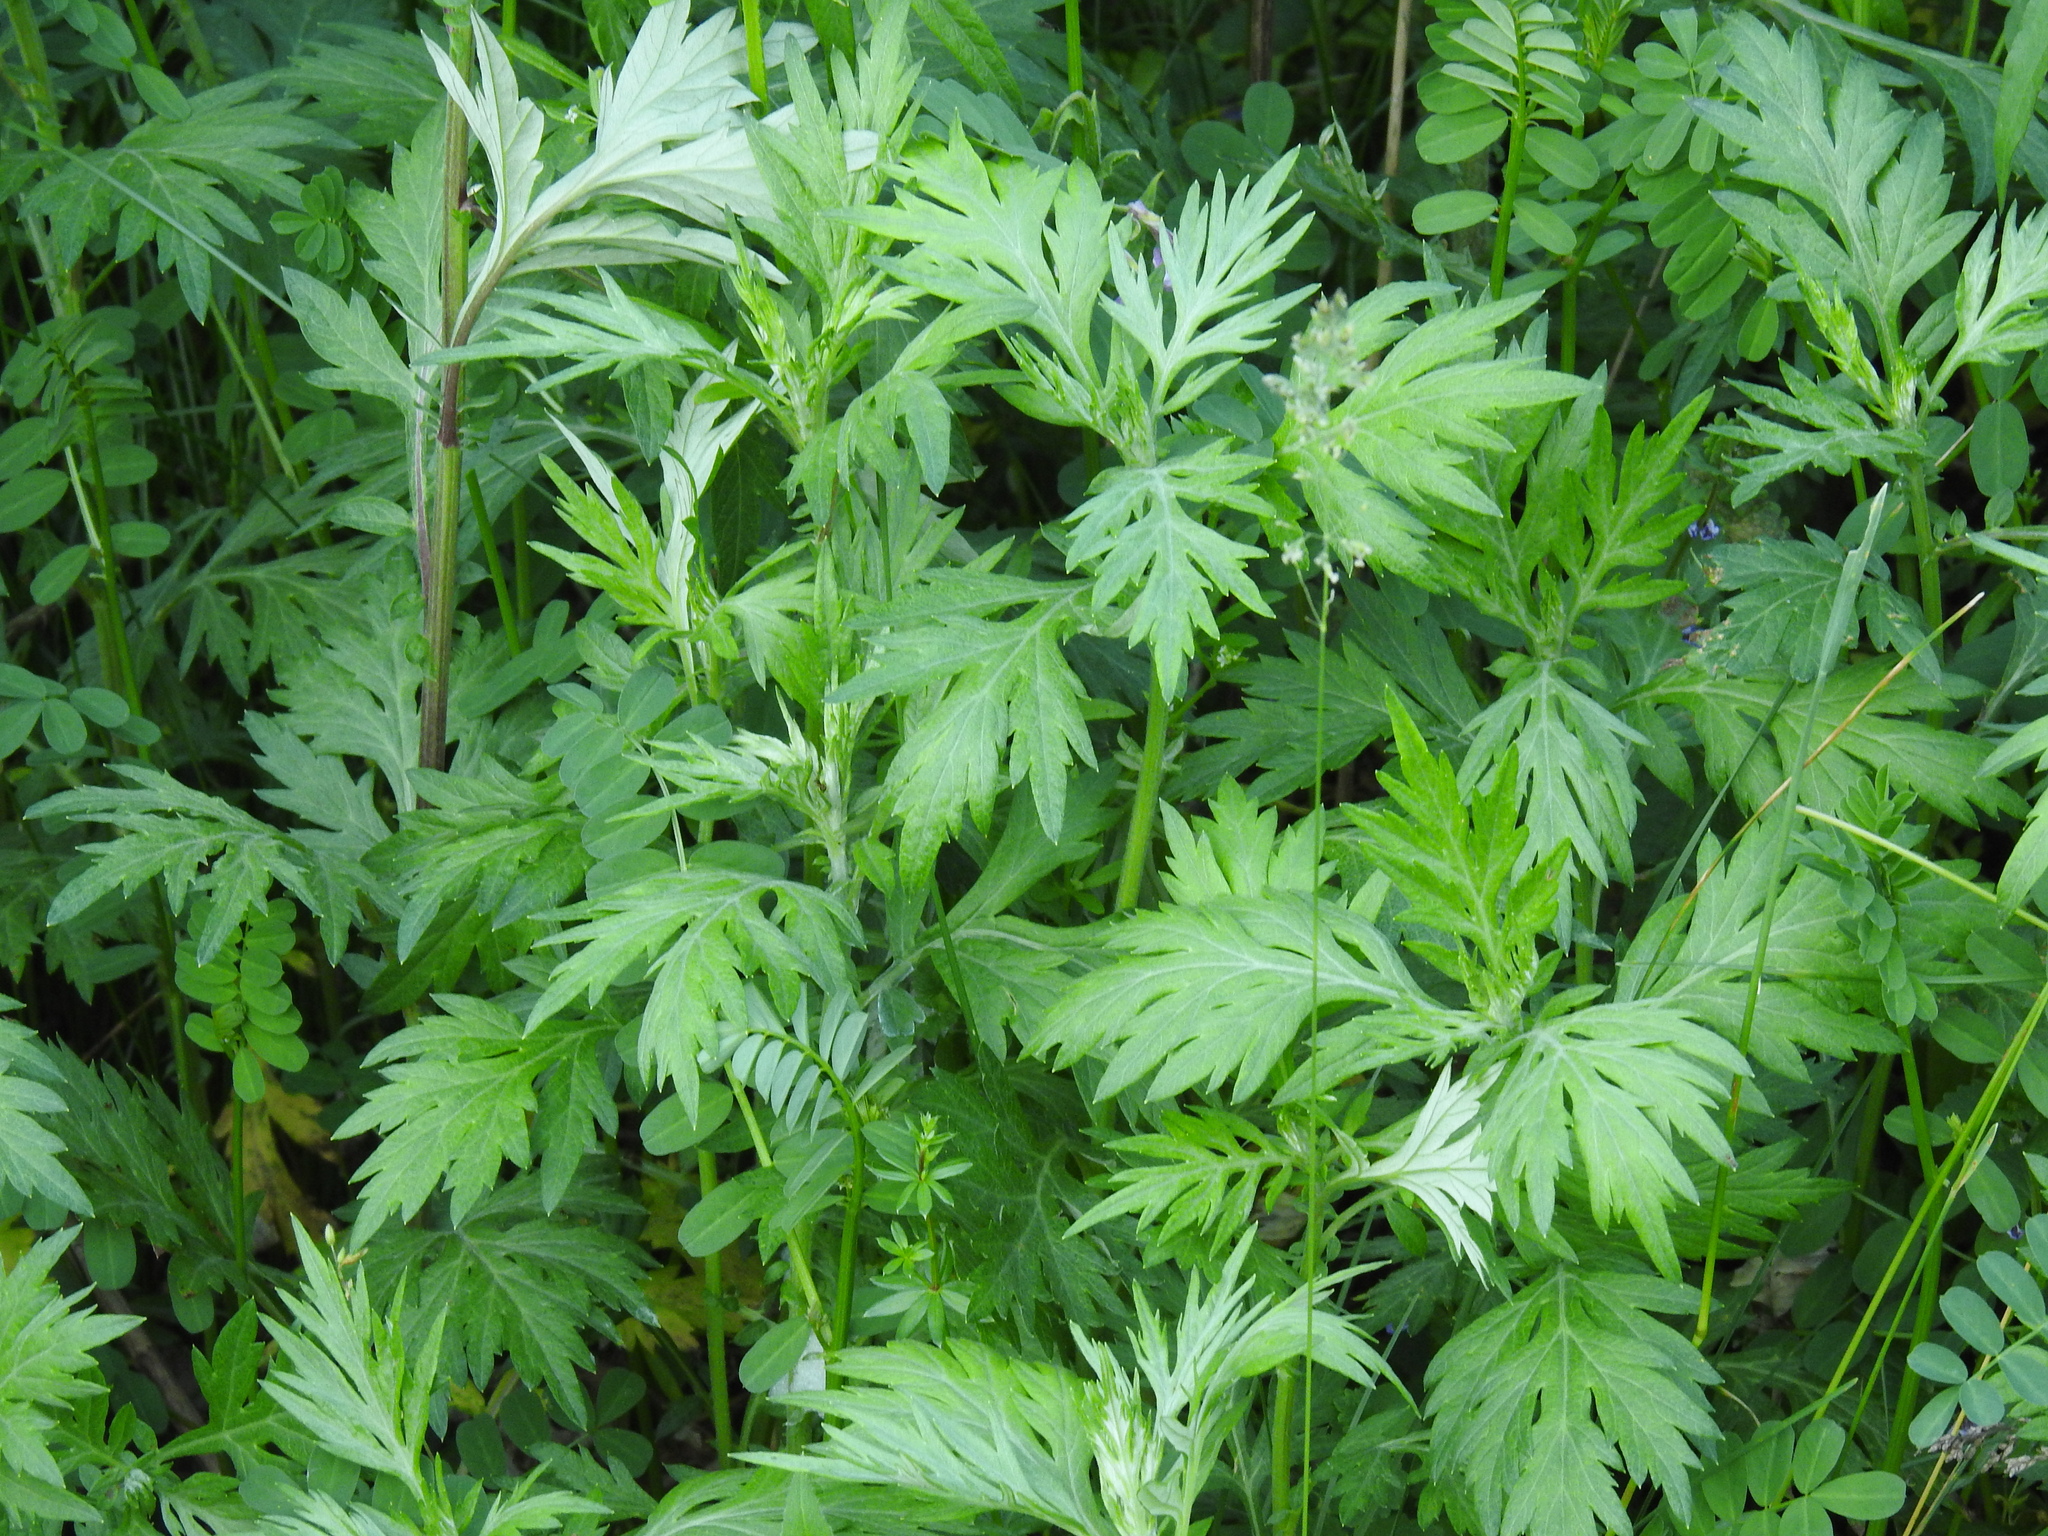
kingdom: Plantae
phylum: Tracheophyta
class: Magnoliopsida
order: Asterales
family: Asteraceae
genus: Artemisia
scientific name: Artemisia vulgaris
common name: Mugwort
